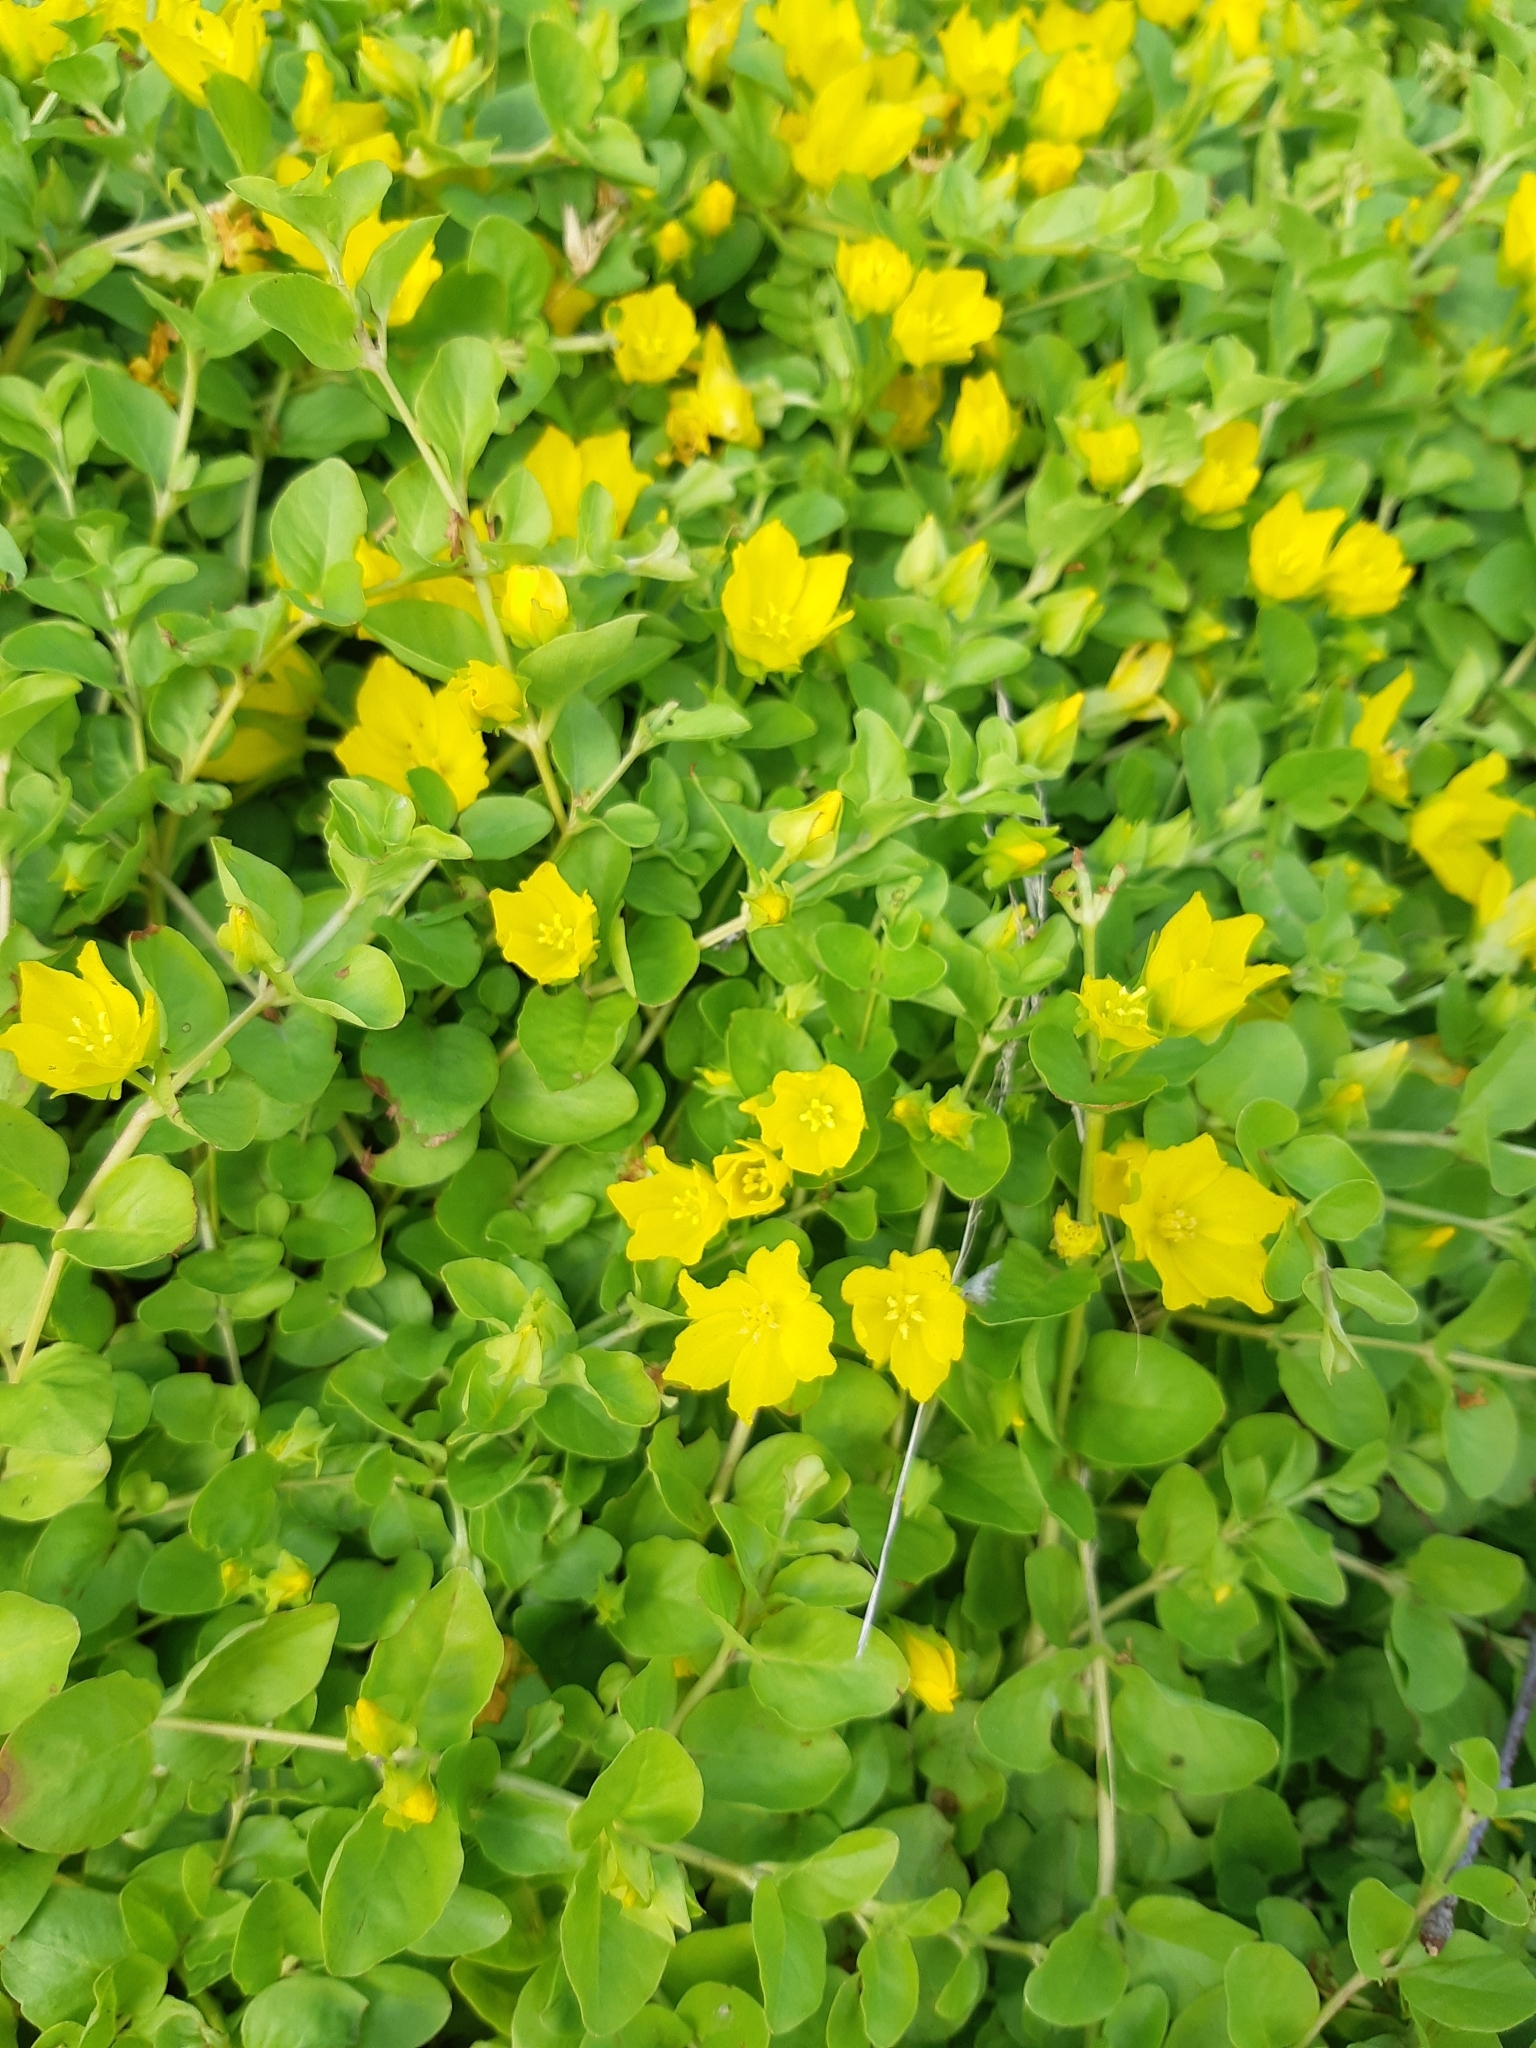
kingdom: Plantae
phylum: Tracheophyta
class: Magnoliopsida
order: Ericales
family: Primulaceae
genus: Lysimachia
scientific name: Lysimachia nummularia
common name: Moneywort
